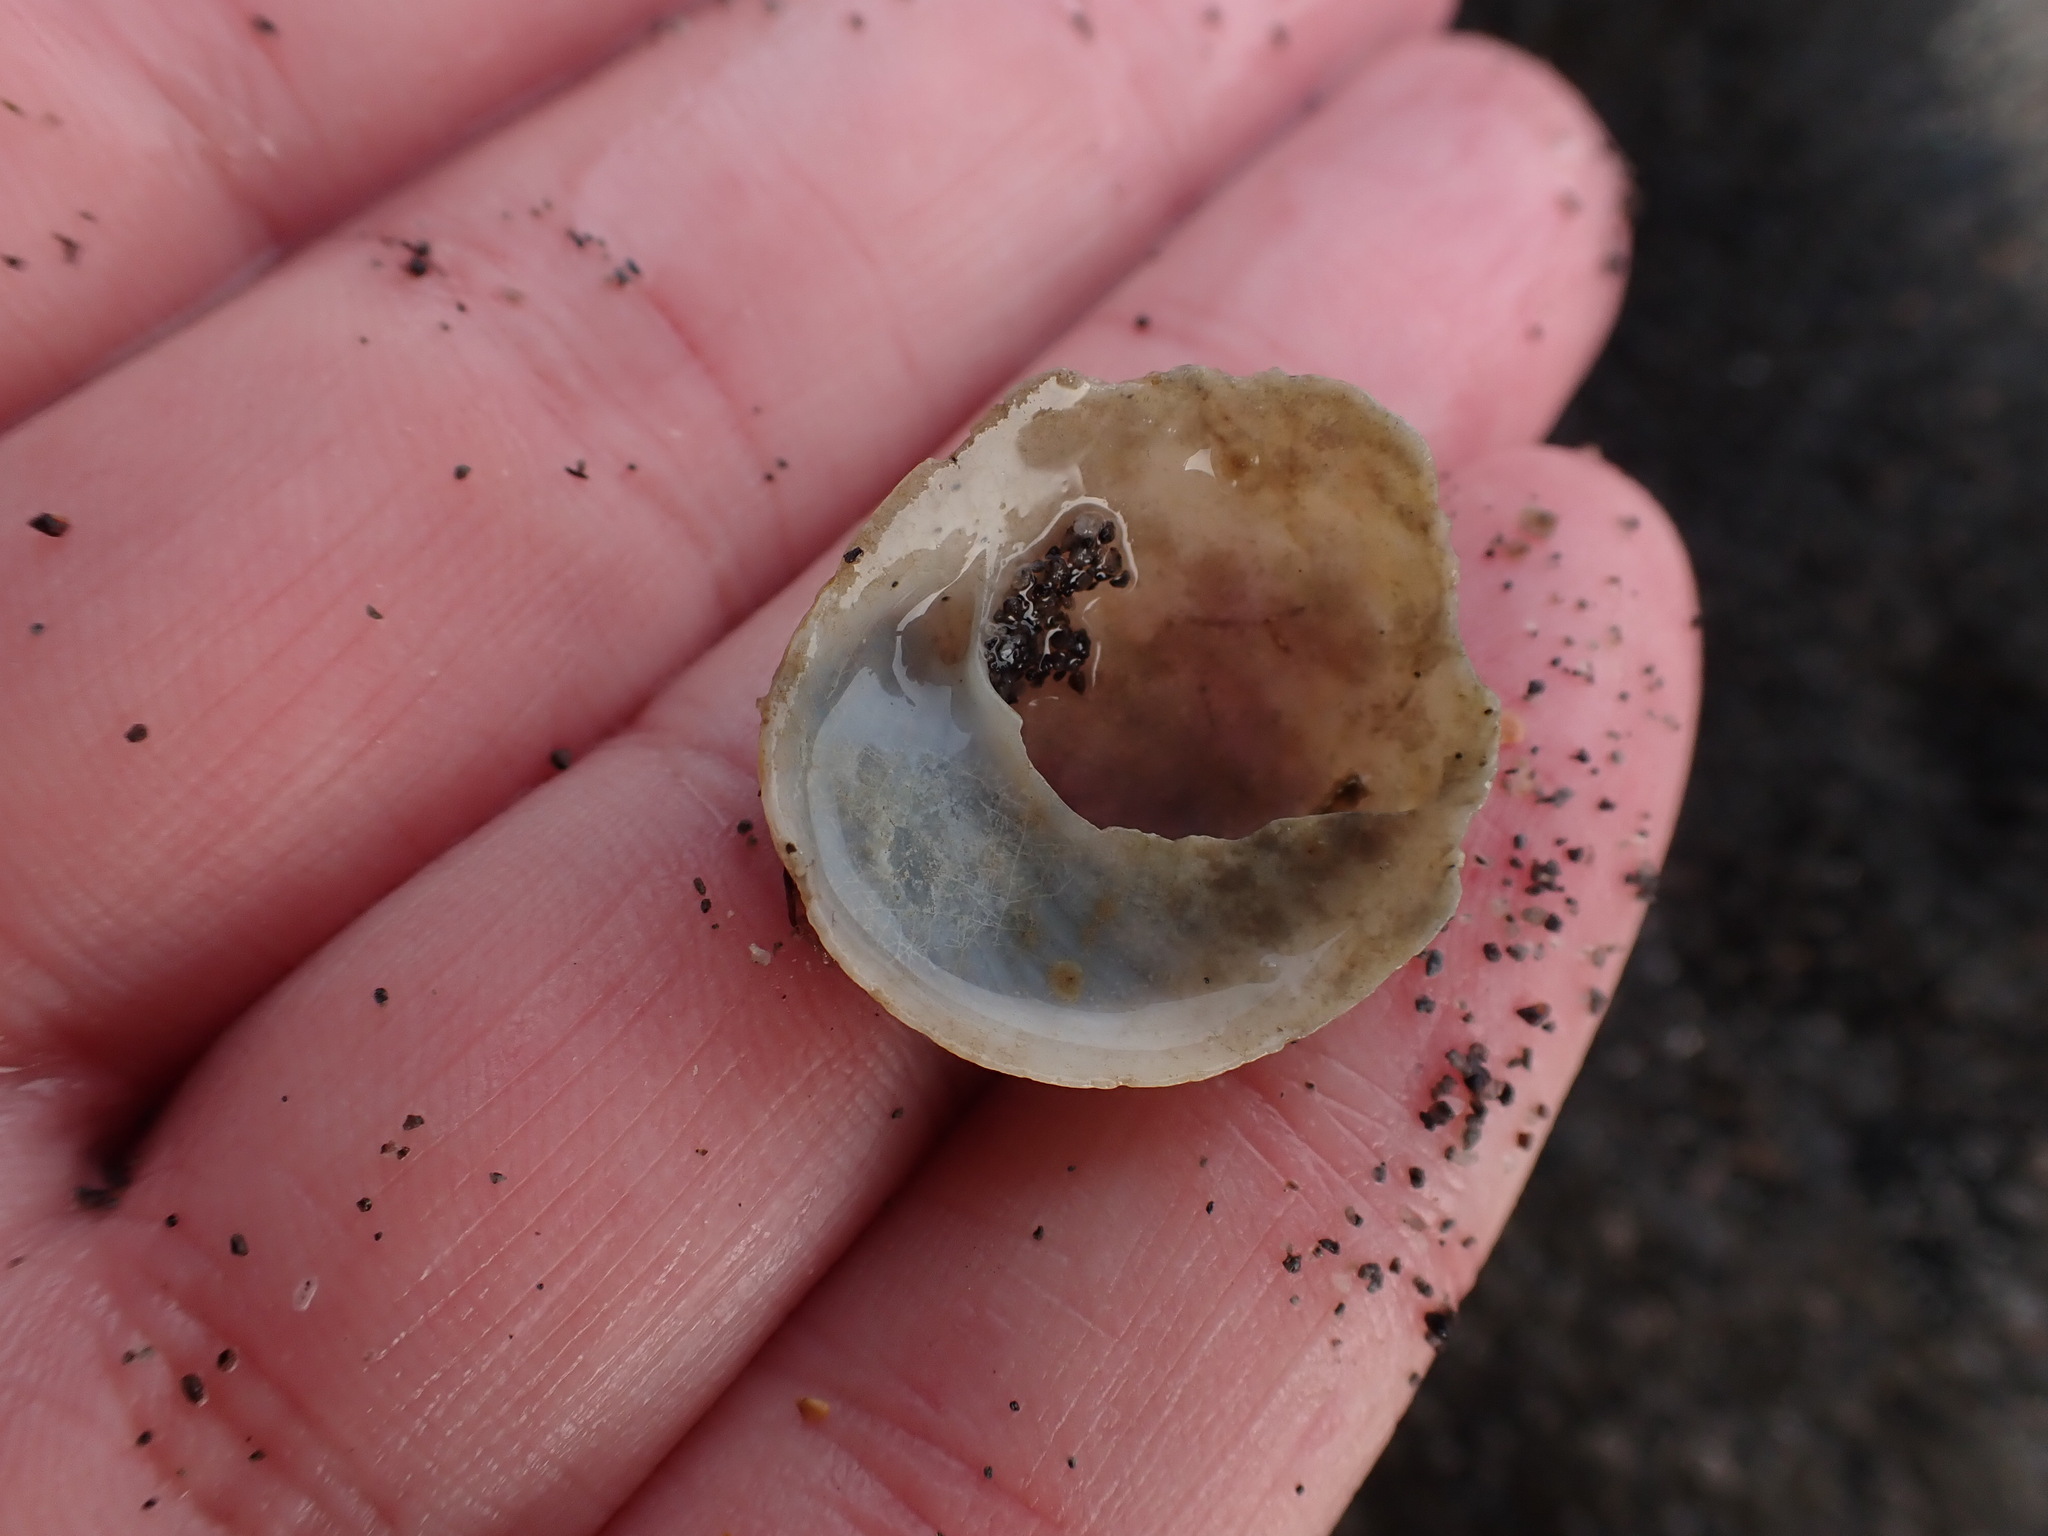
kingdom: Animalia
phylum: Mollusca
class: Gastropoda
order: Littorinimorpha
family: Calyptraeidae
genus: Sigapatella
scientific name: Sigapatella novaezelandiae
